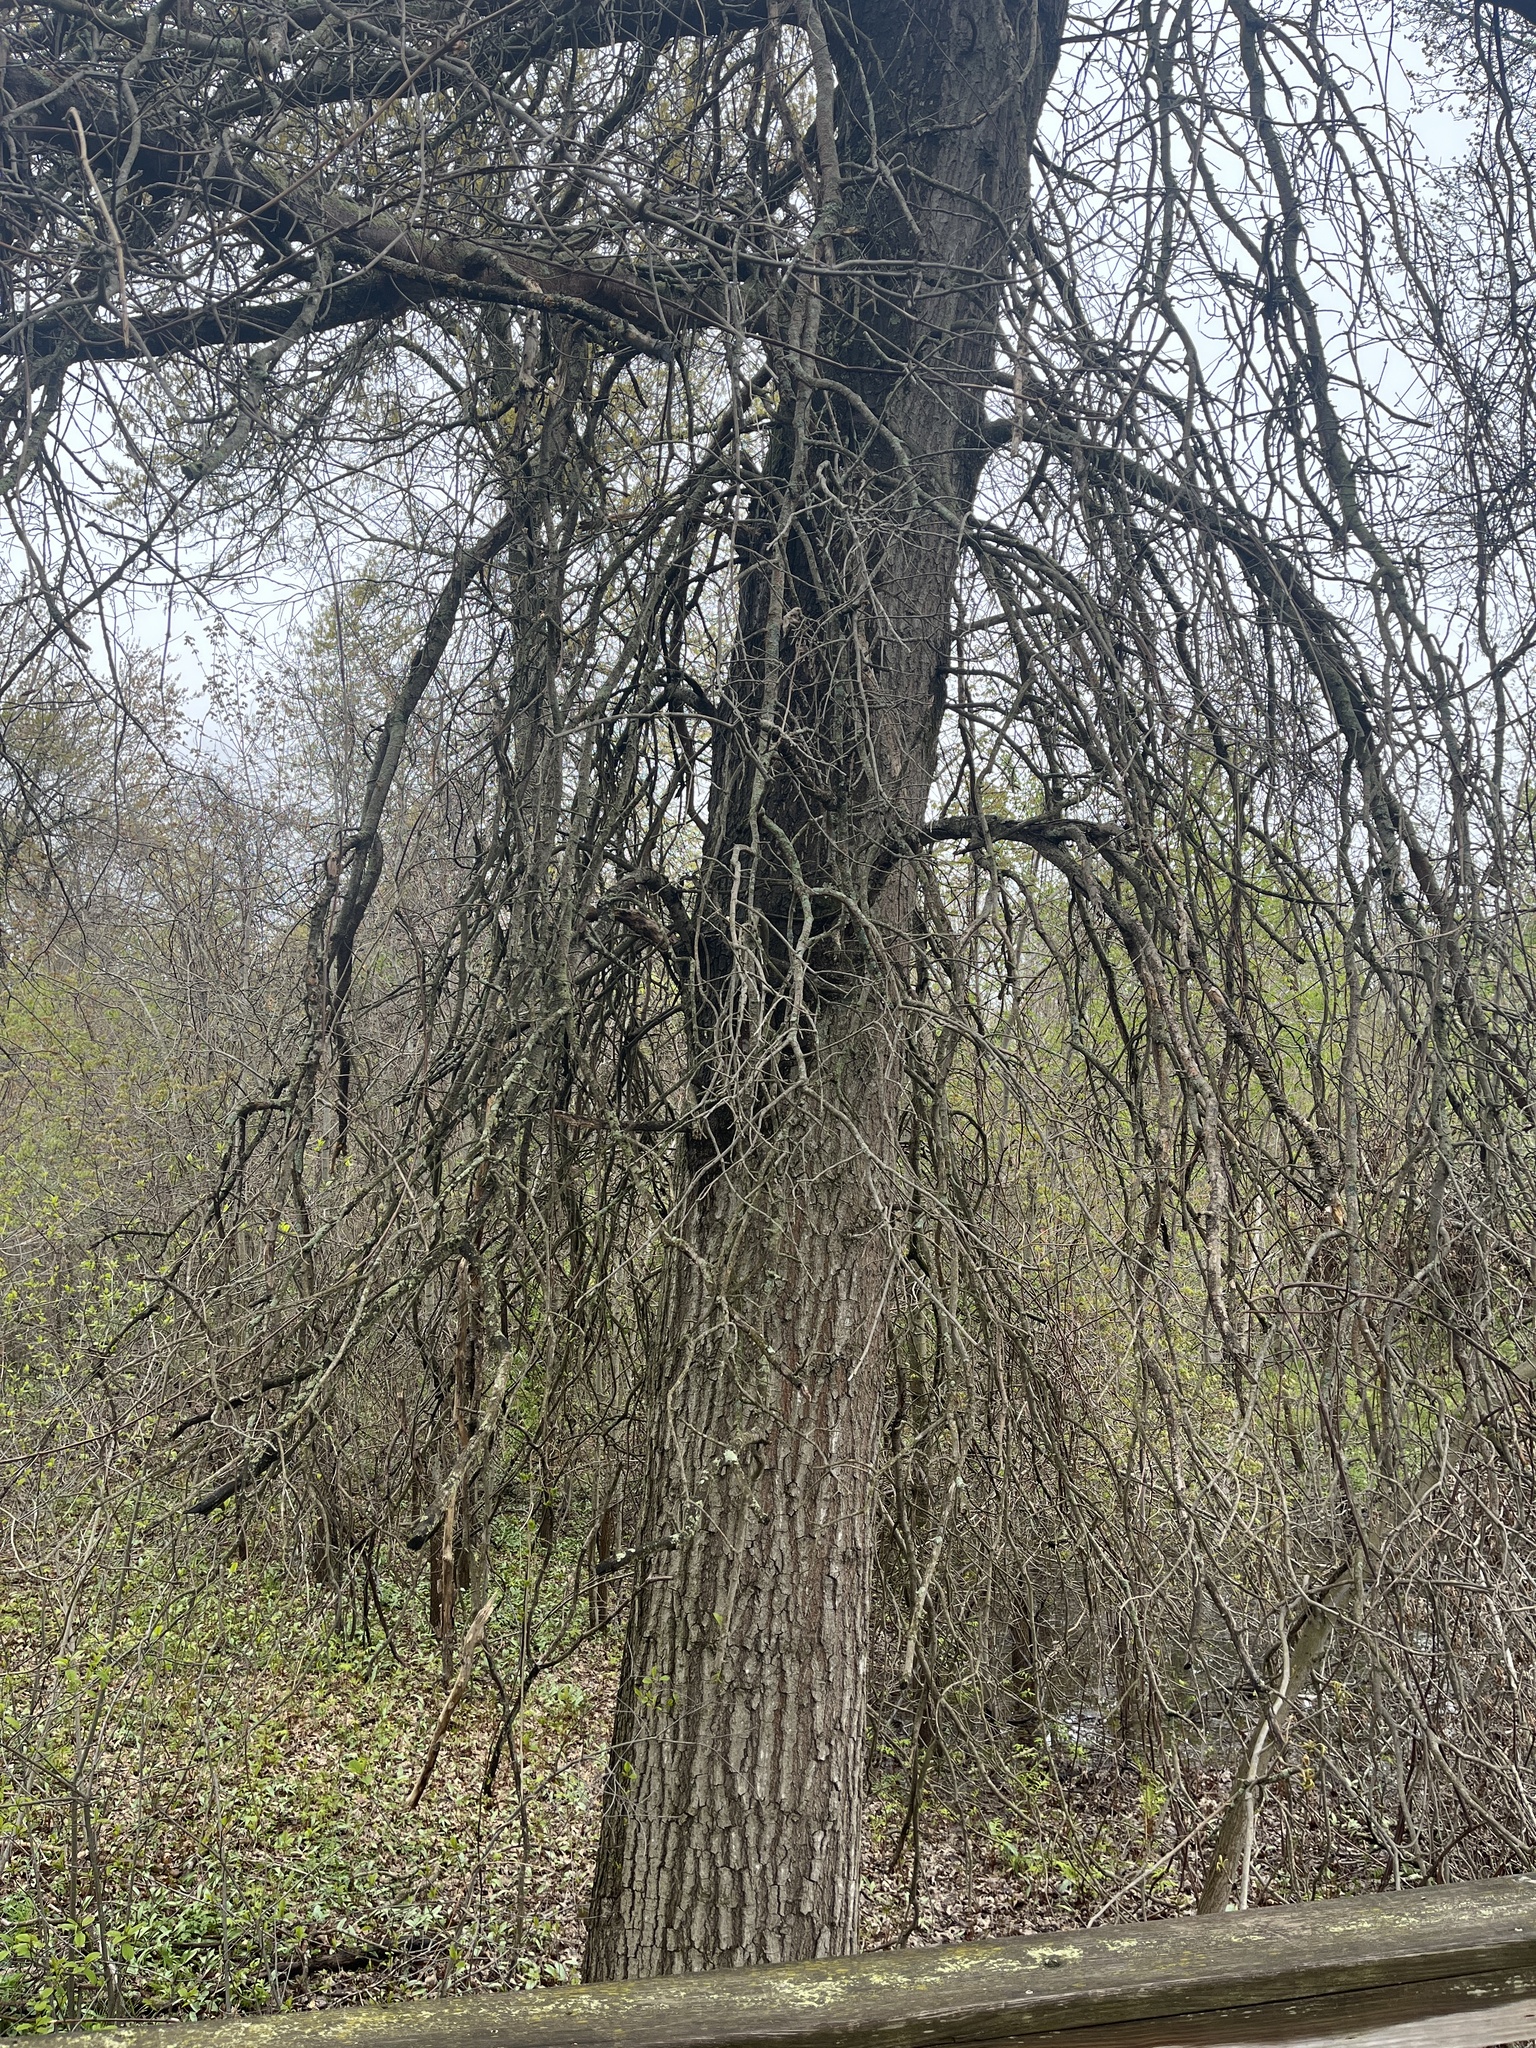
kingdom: Plantae
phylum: Tracheophyta
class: Magnoliopsida
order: Fagales
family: Fagaceae
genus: Quercus
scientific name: Quercus palustris
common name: Pin oak
